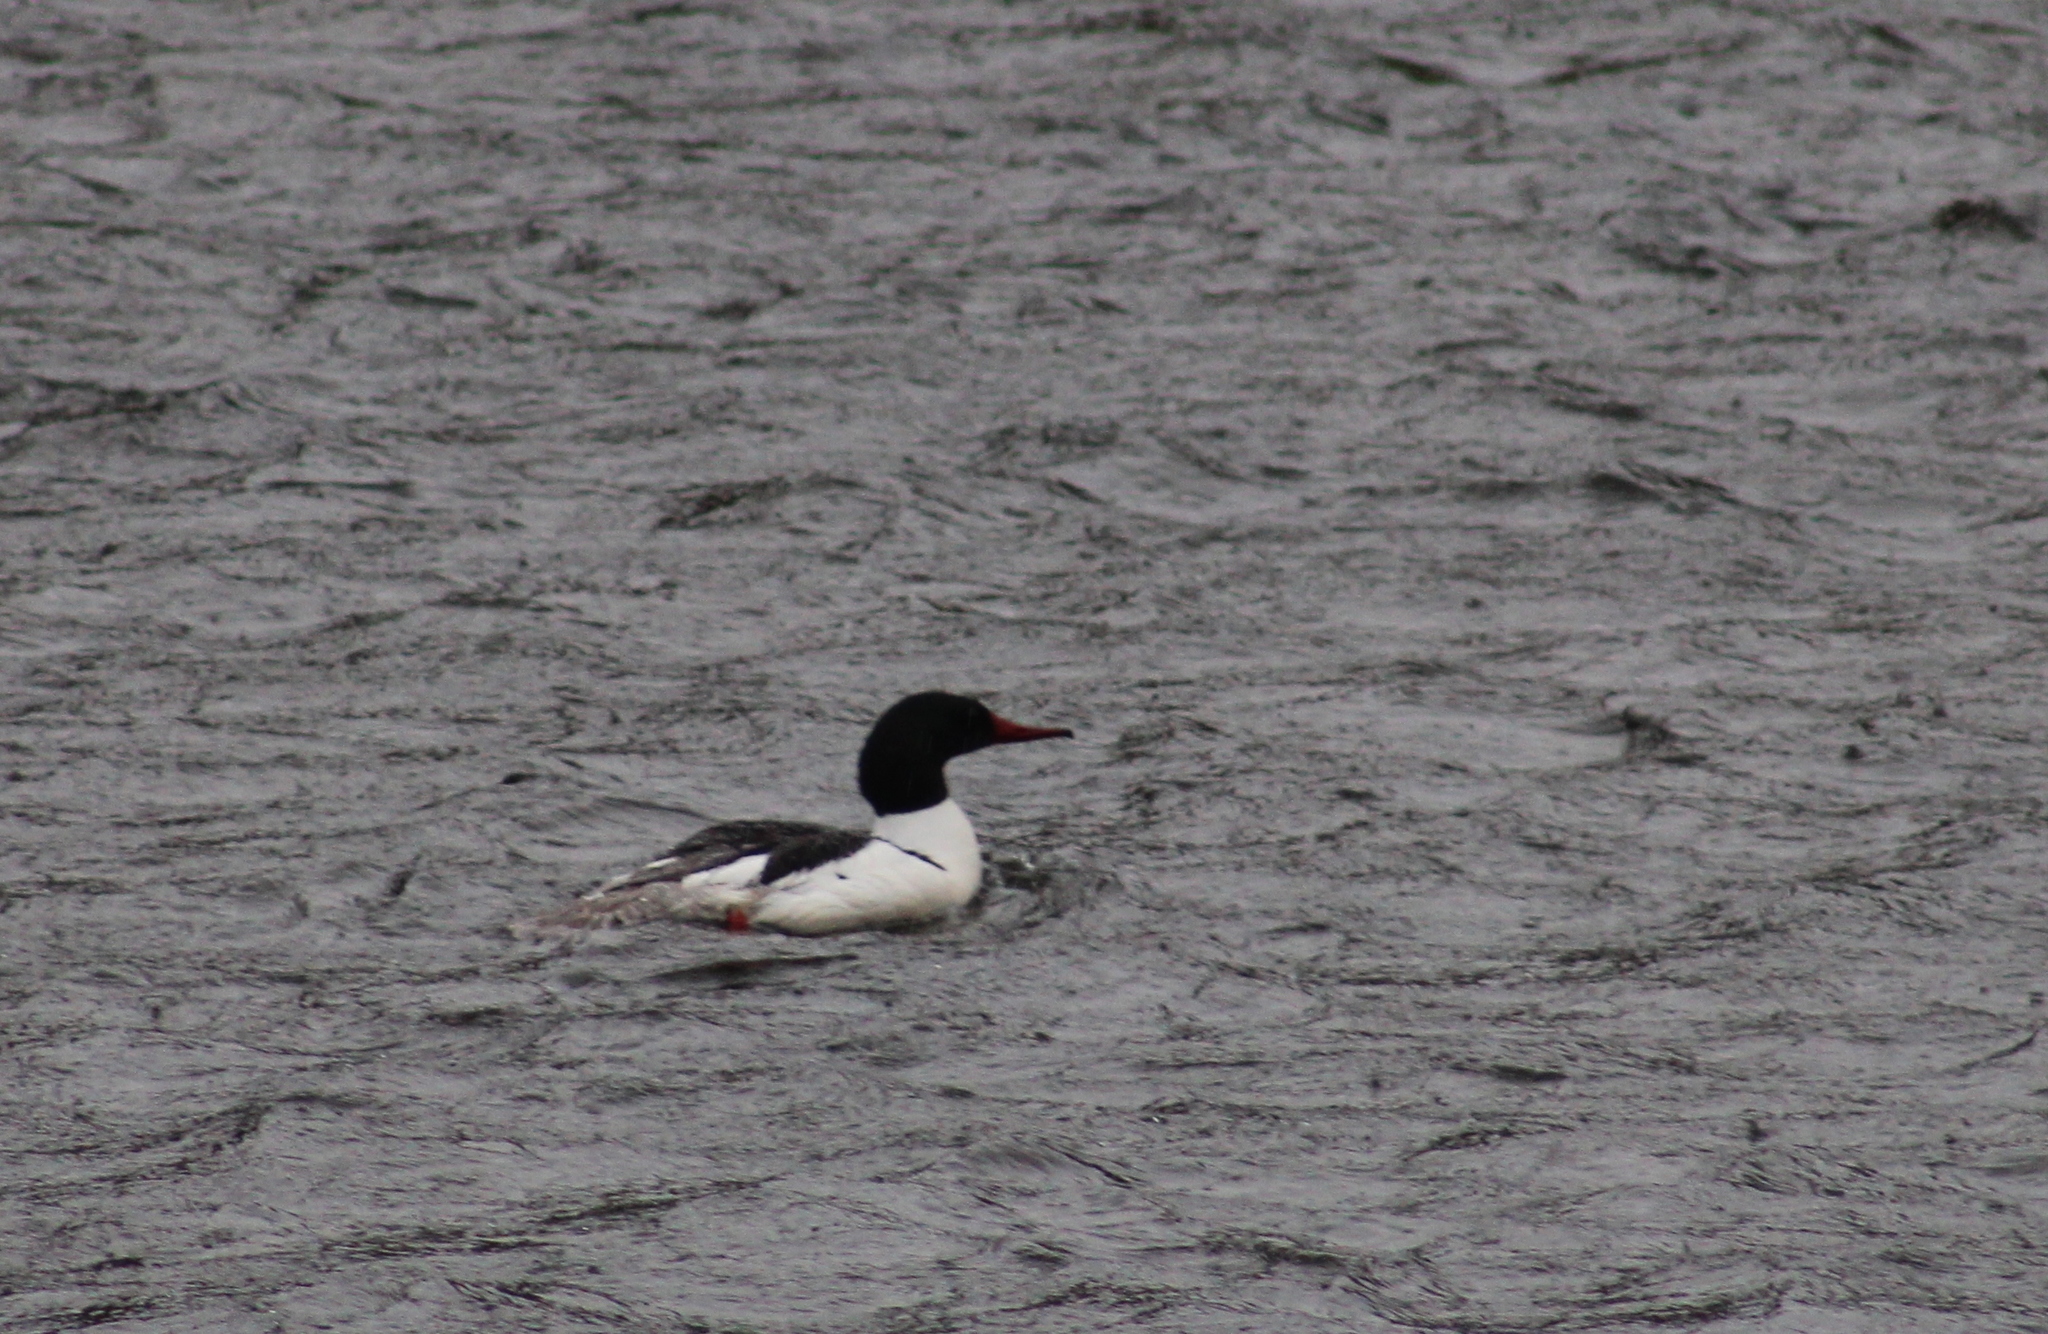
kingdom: Animalia
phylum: Chordata
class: Aves
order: Anseriformes
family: Anatidae
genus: Mergus
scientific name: Mergus merganser
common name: Common merganser
